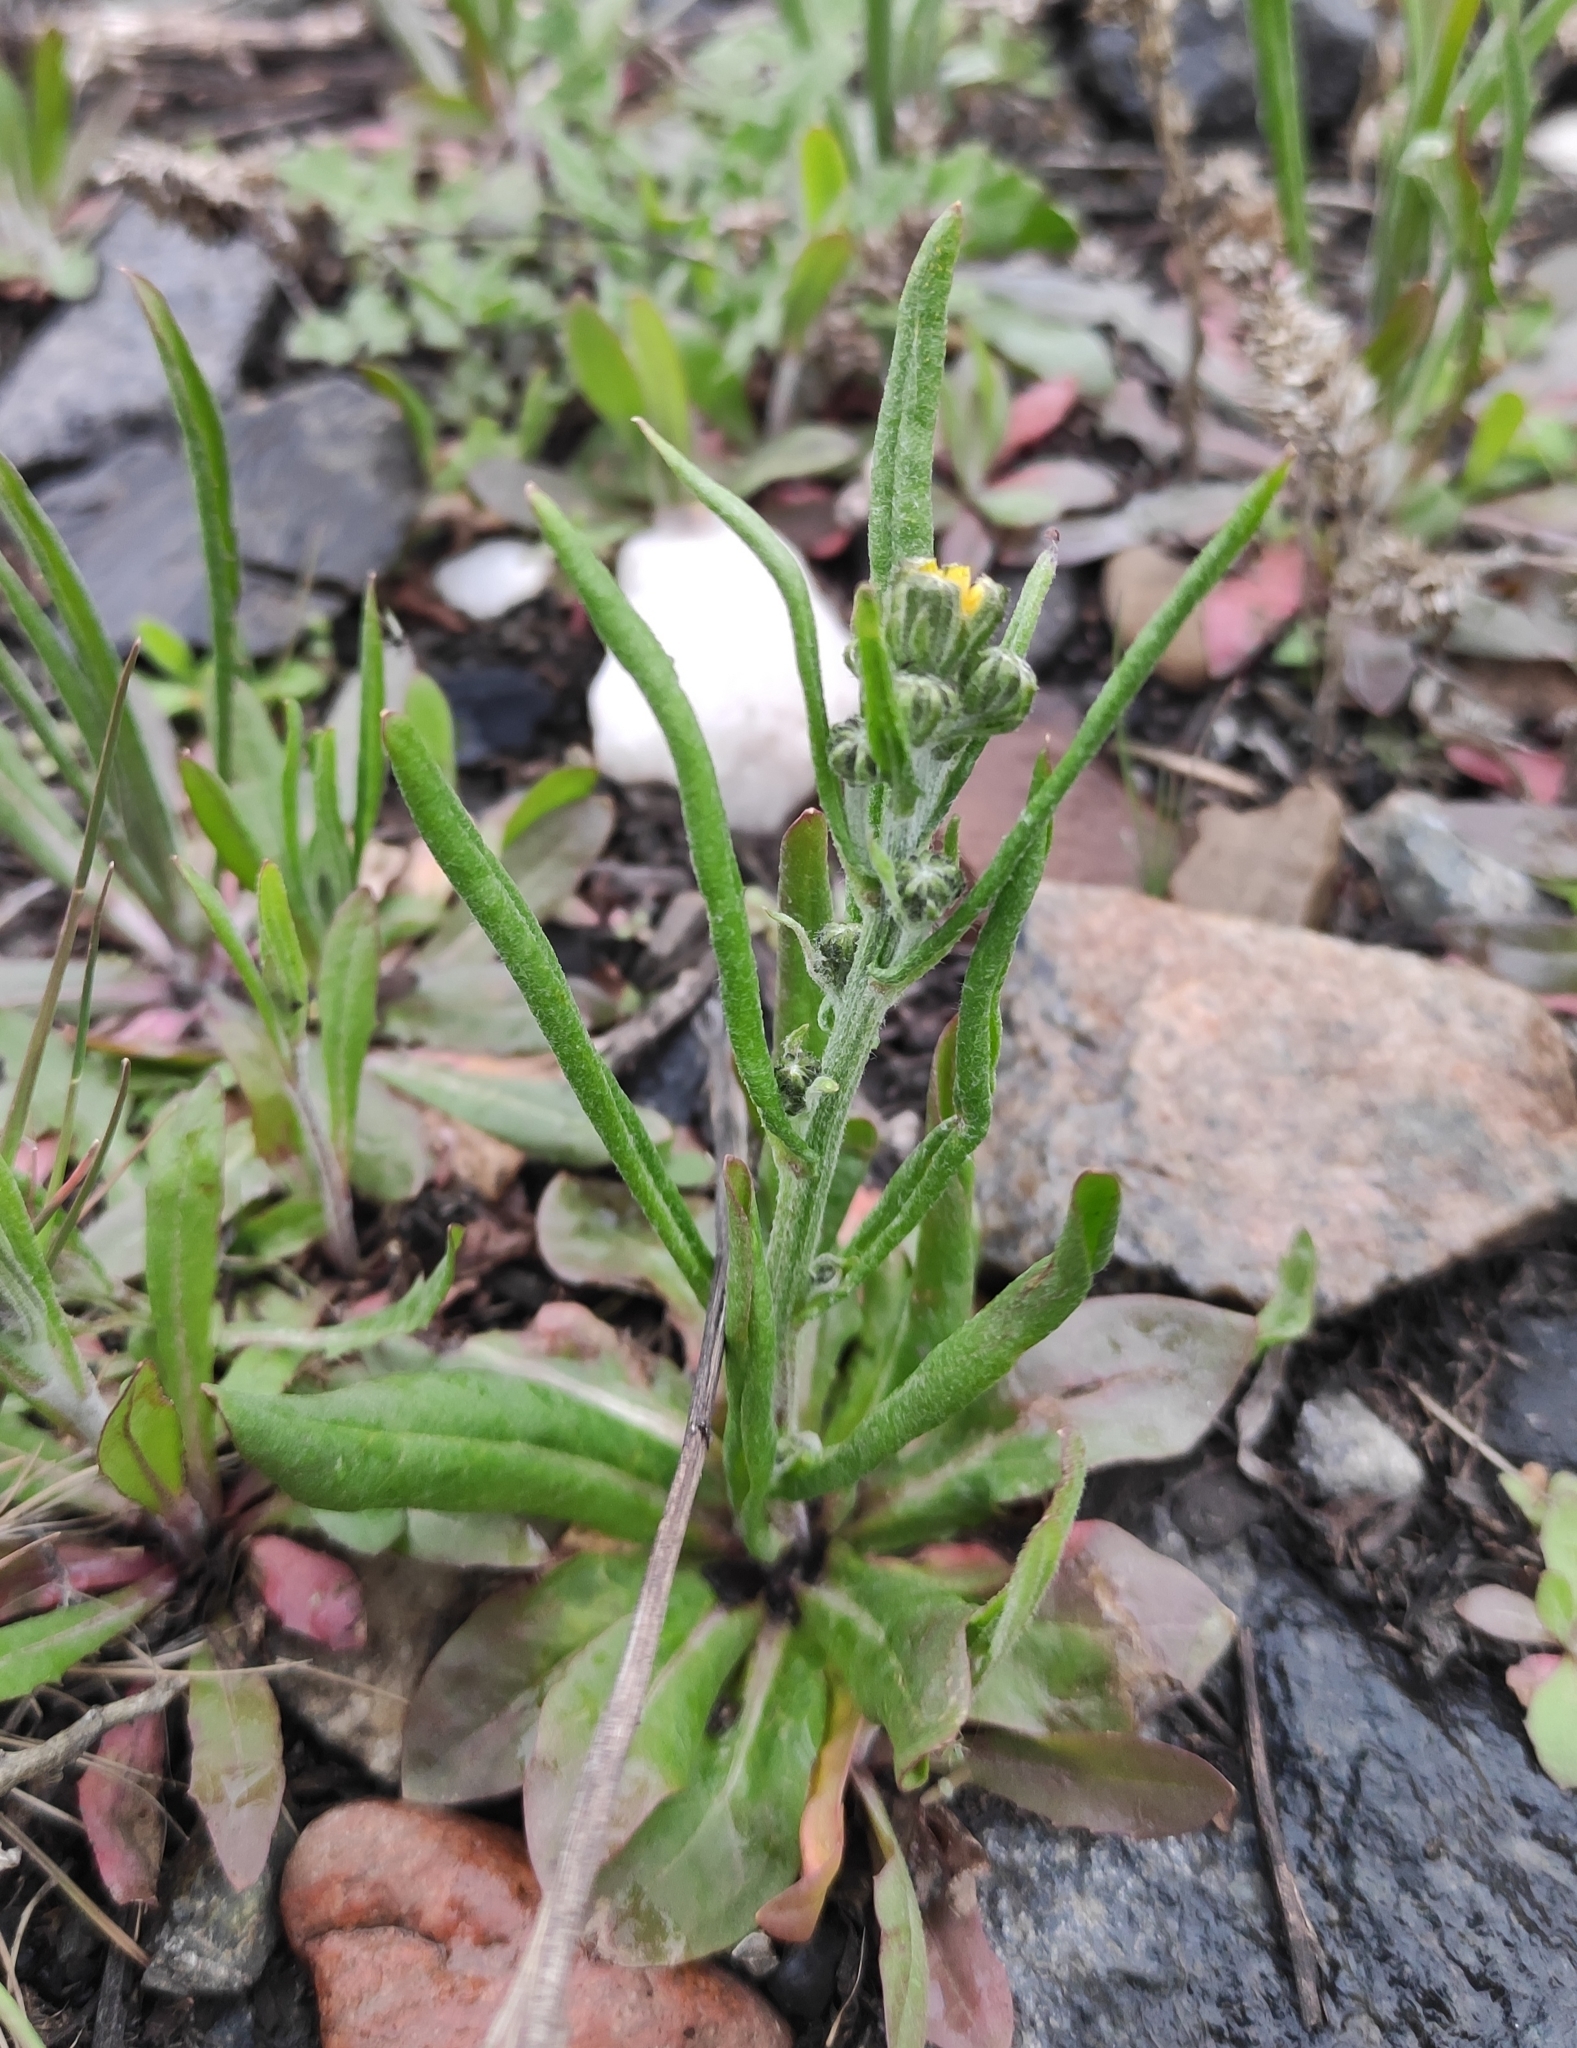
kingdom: Plantae
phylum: Tracheophyta
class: Magnoliopsida
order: Asterales
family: Asteraceae
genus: Crepis
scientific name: Crepis tectorum
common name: Narrow-leaved hawk's-beard
